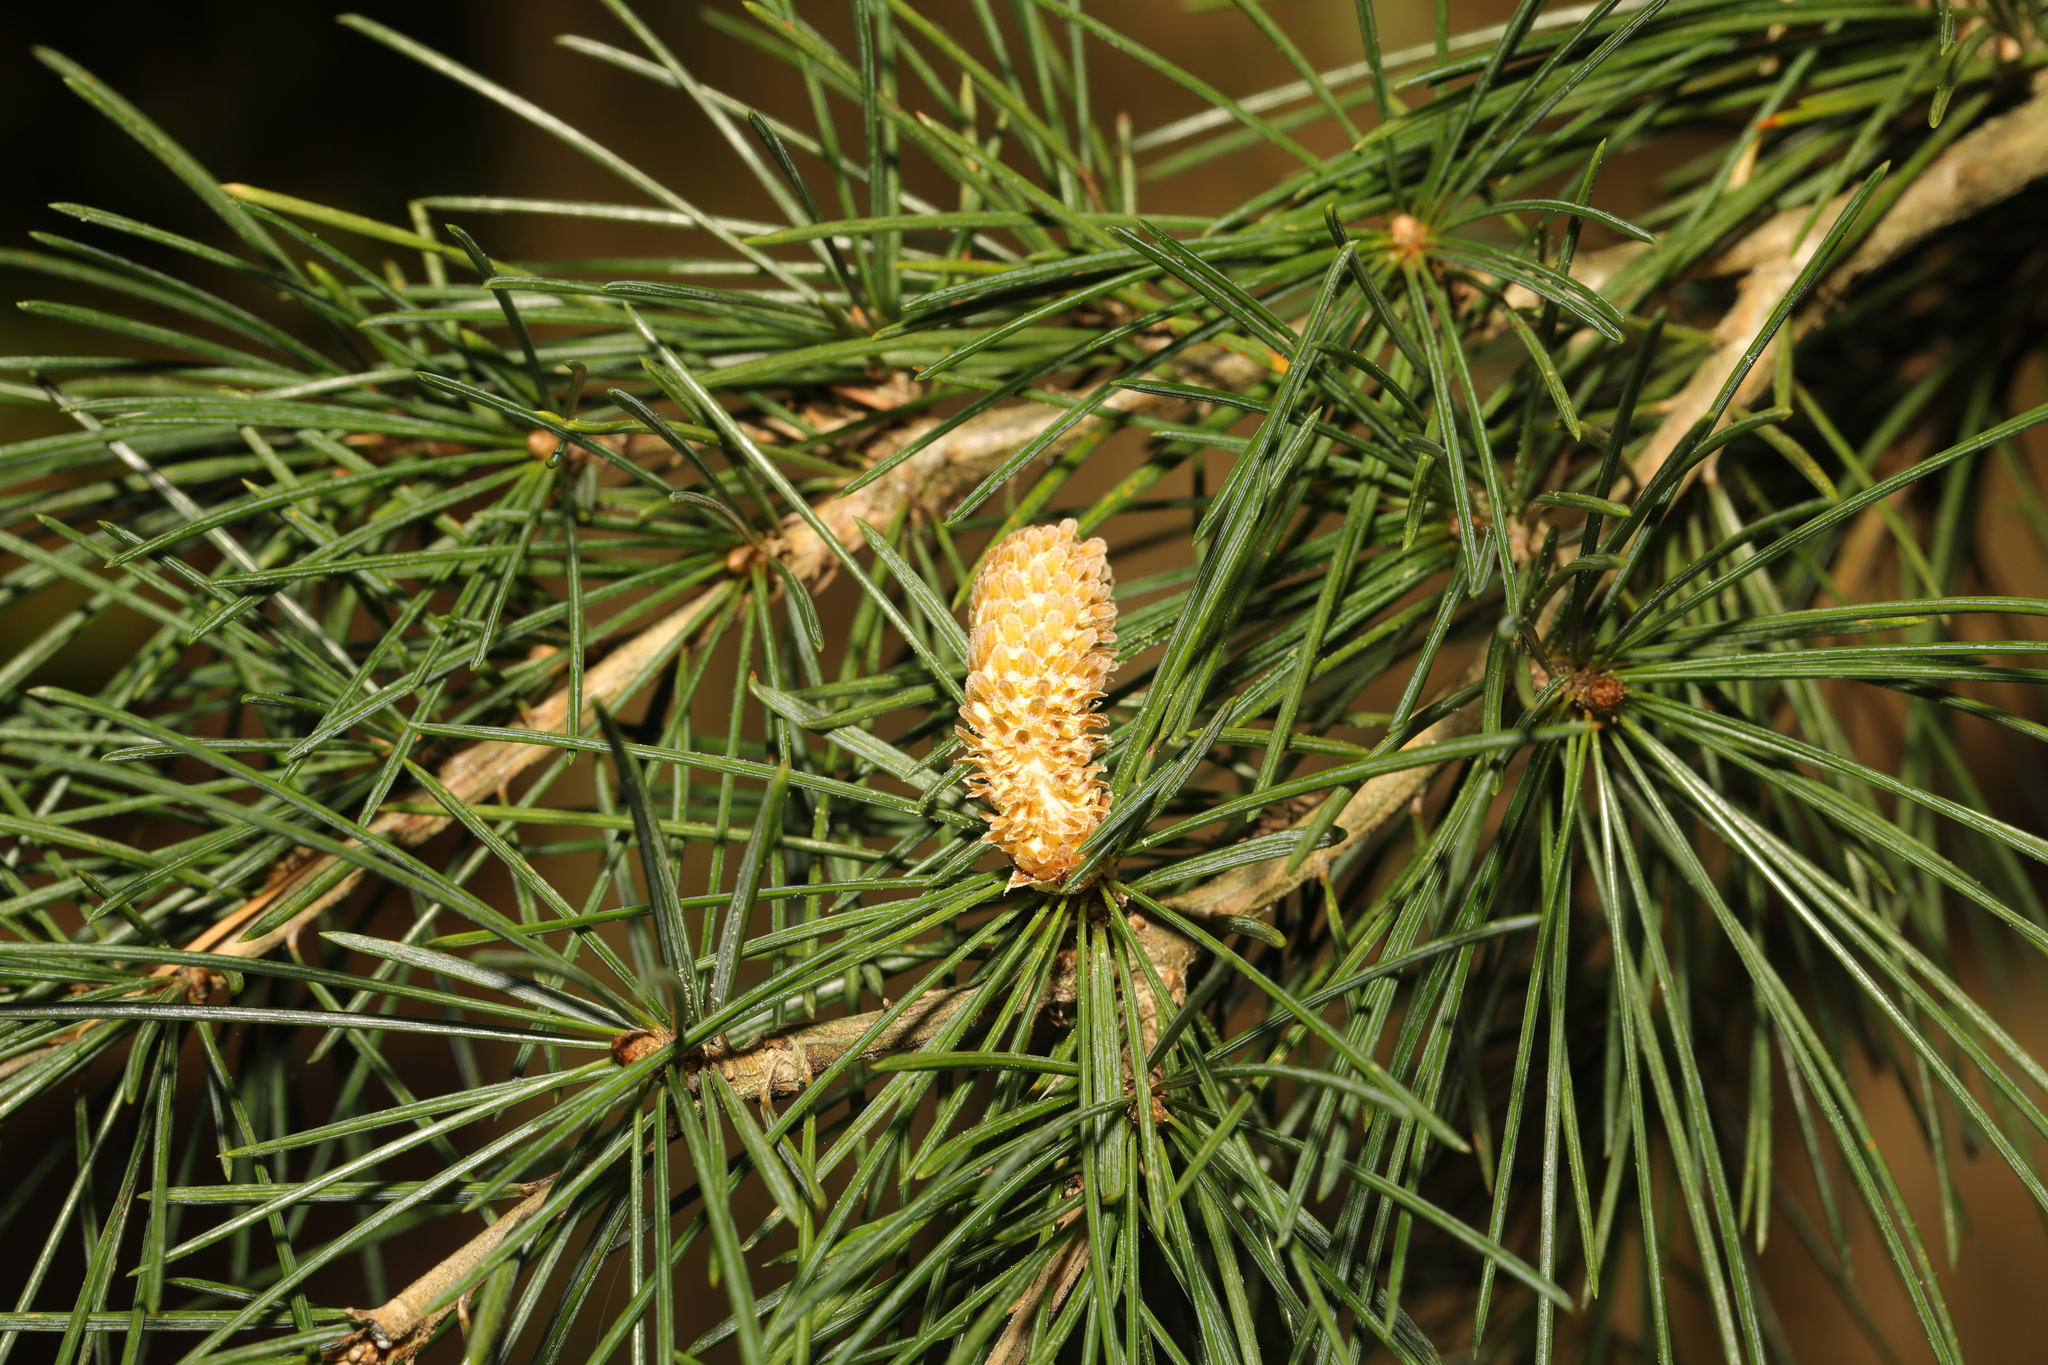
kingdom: Plantae
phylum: Tracheophyta
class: Pinopsida
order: Pinales
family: Pinaceae
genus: Cedrus
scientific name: Cedrus deodara
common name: Deodar
